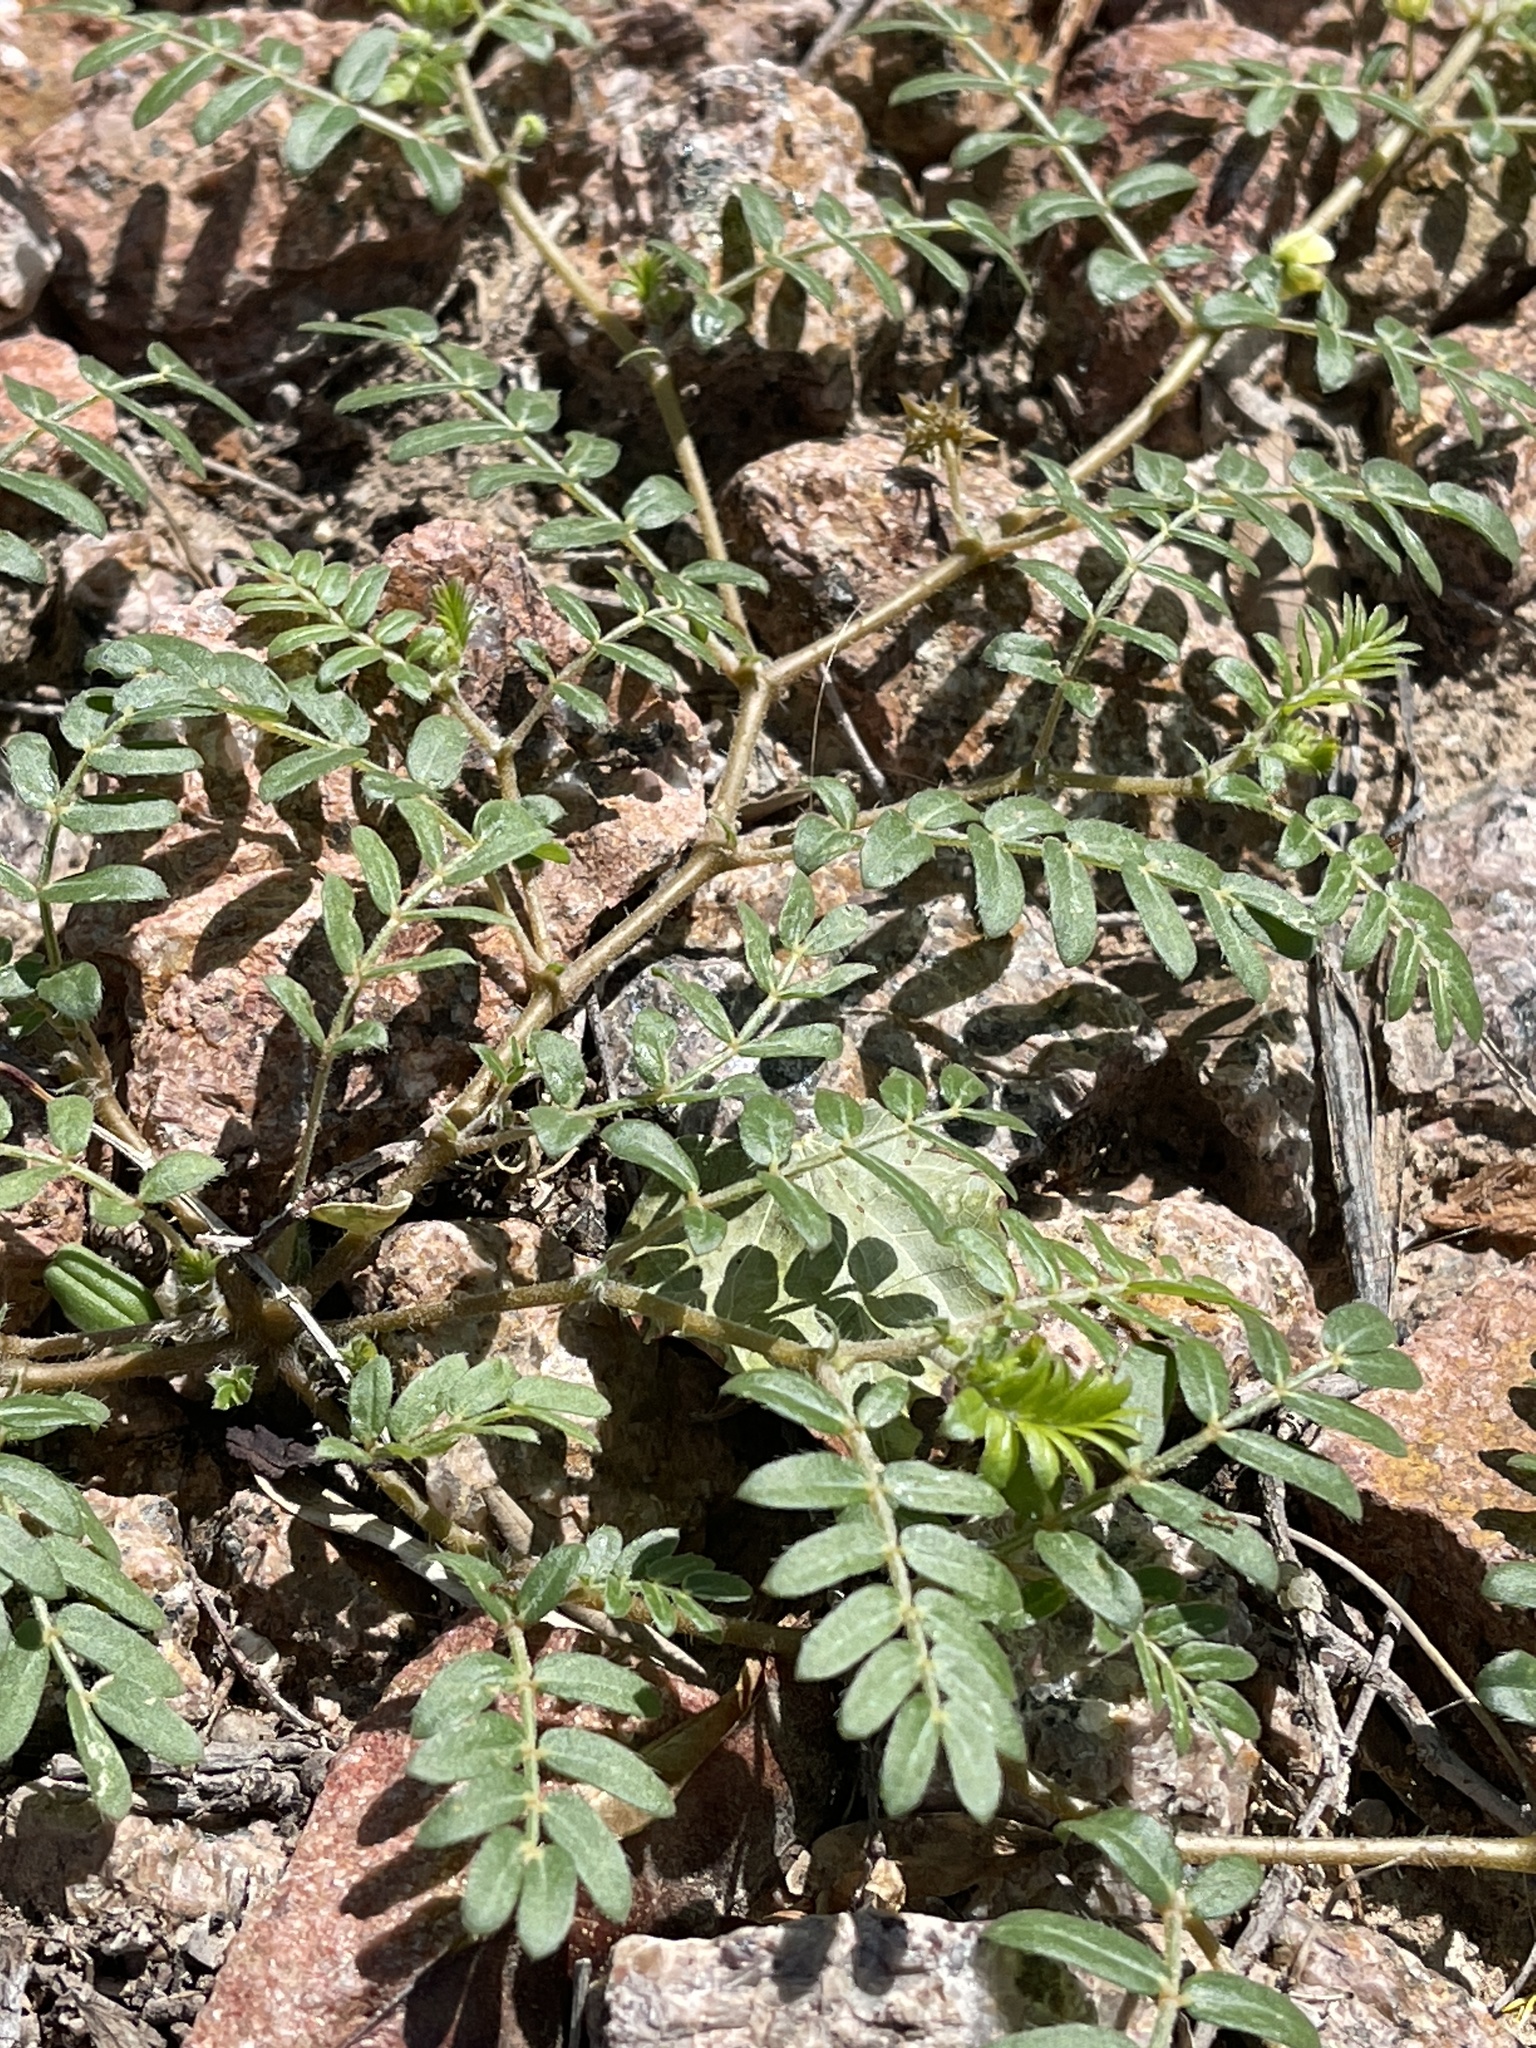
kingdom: Plantae
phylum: Tracheophyta
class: Magnoliopsida
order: Zygophyllales
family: Zygophyllaceae
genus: Tribulus
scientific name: Tribulus terrestris
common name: Puncturevine
